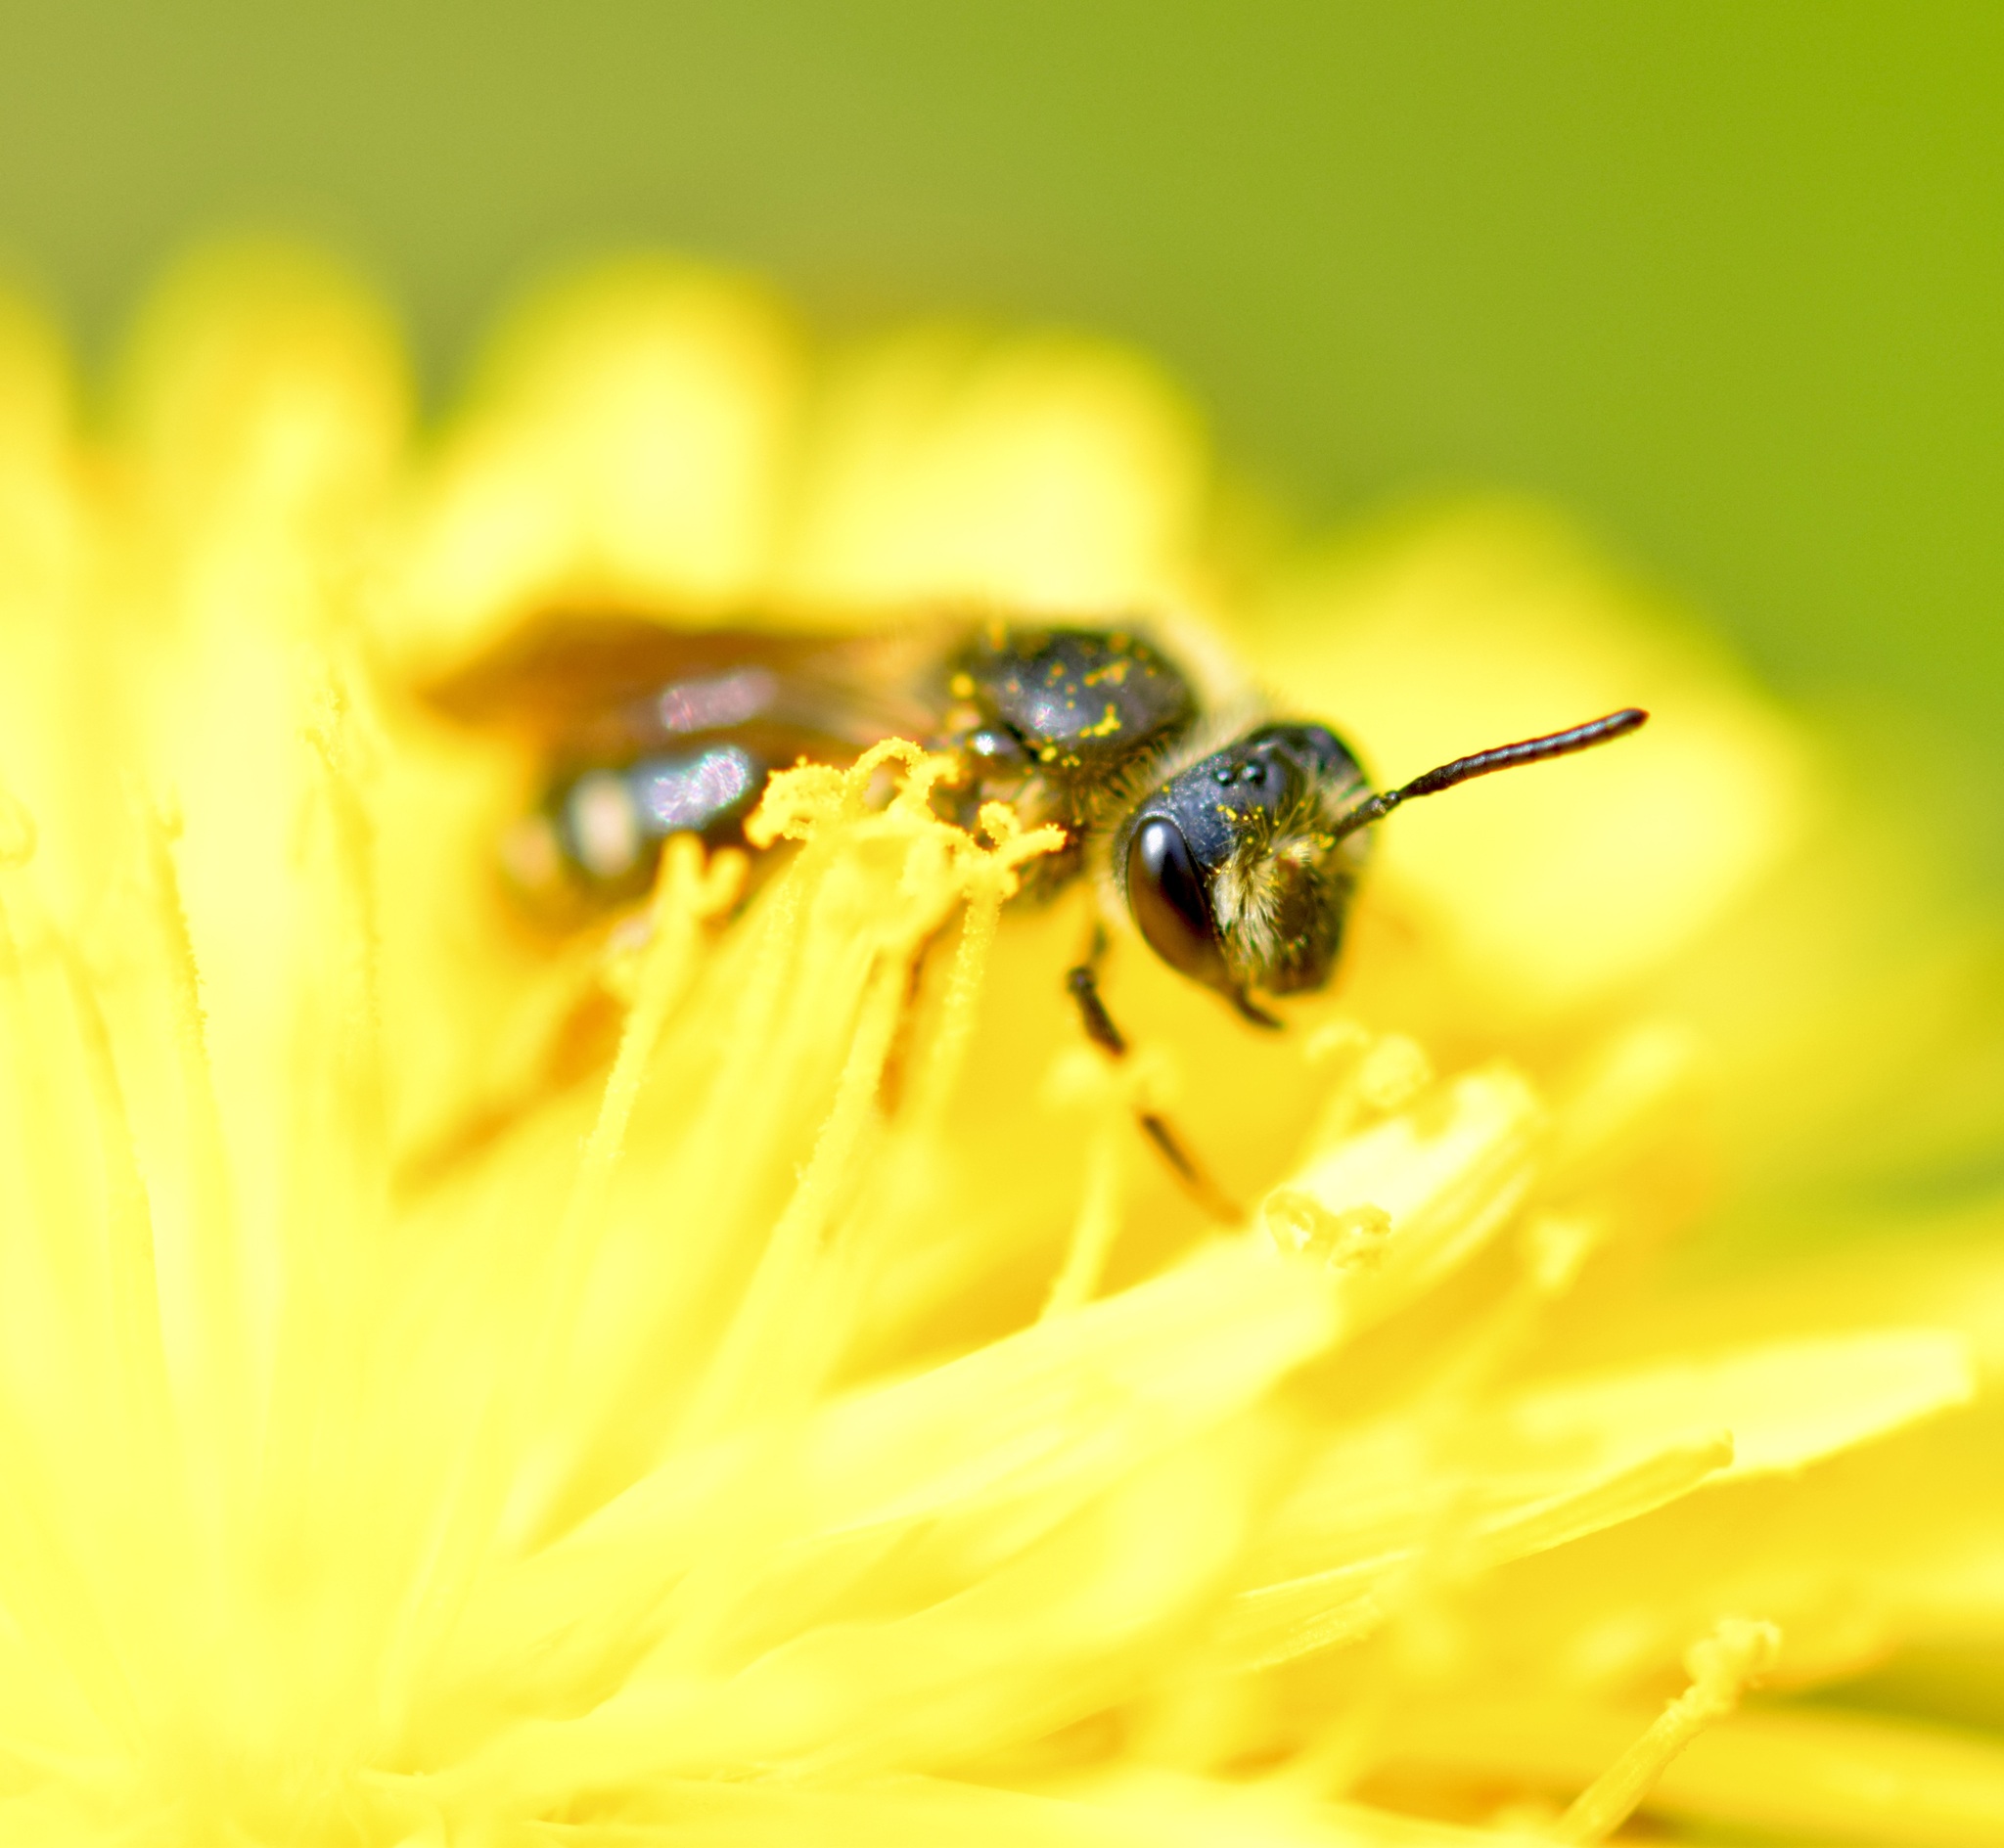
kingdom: Animalia
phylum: Arthropoda
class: Insecta
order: Hymenoptera
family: Andrenidae
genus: Andrena
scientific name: Andrena hippotes
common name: Hippotes's miner bee
